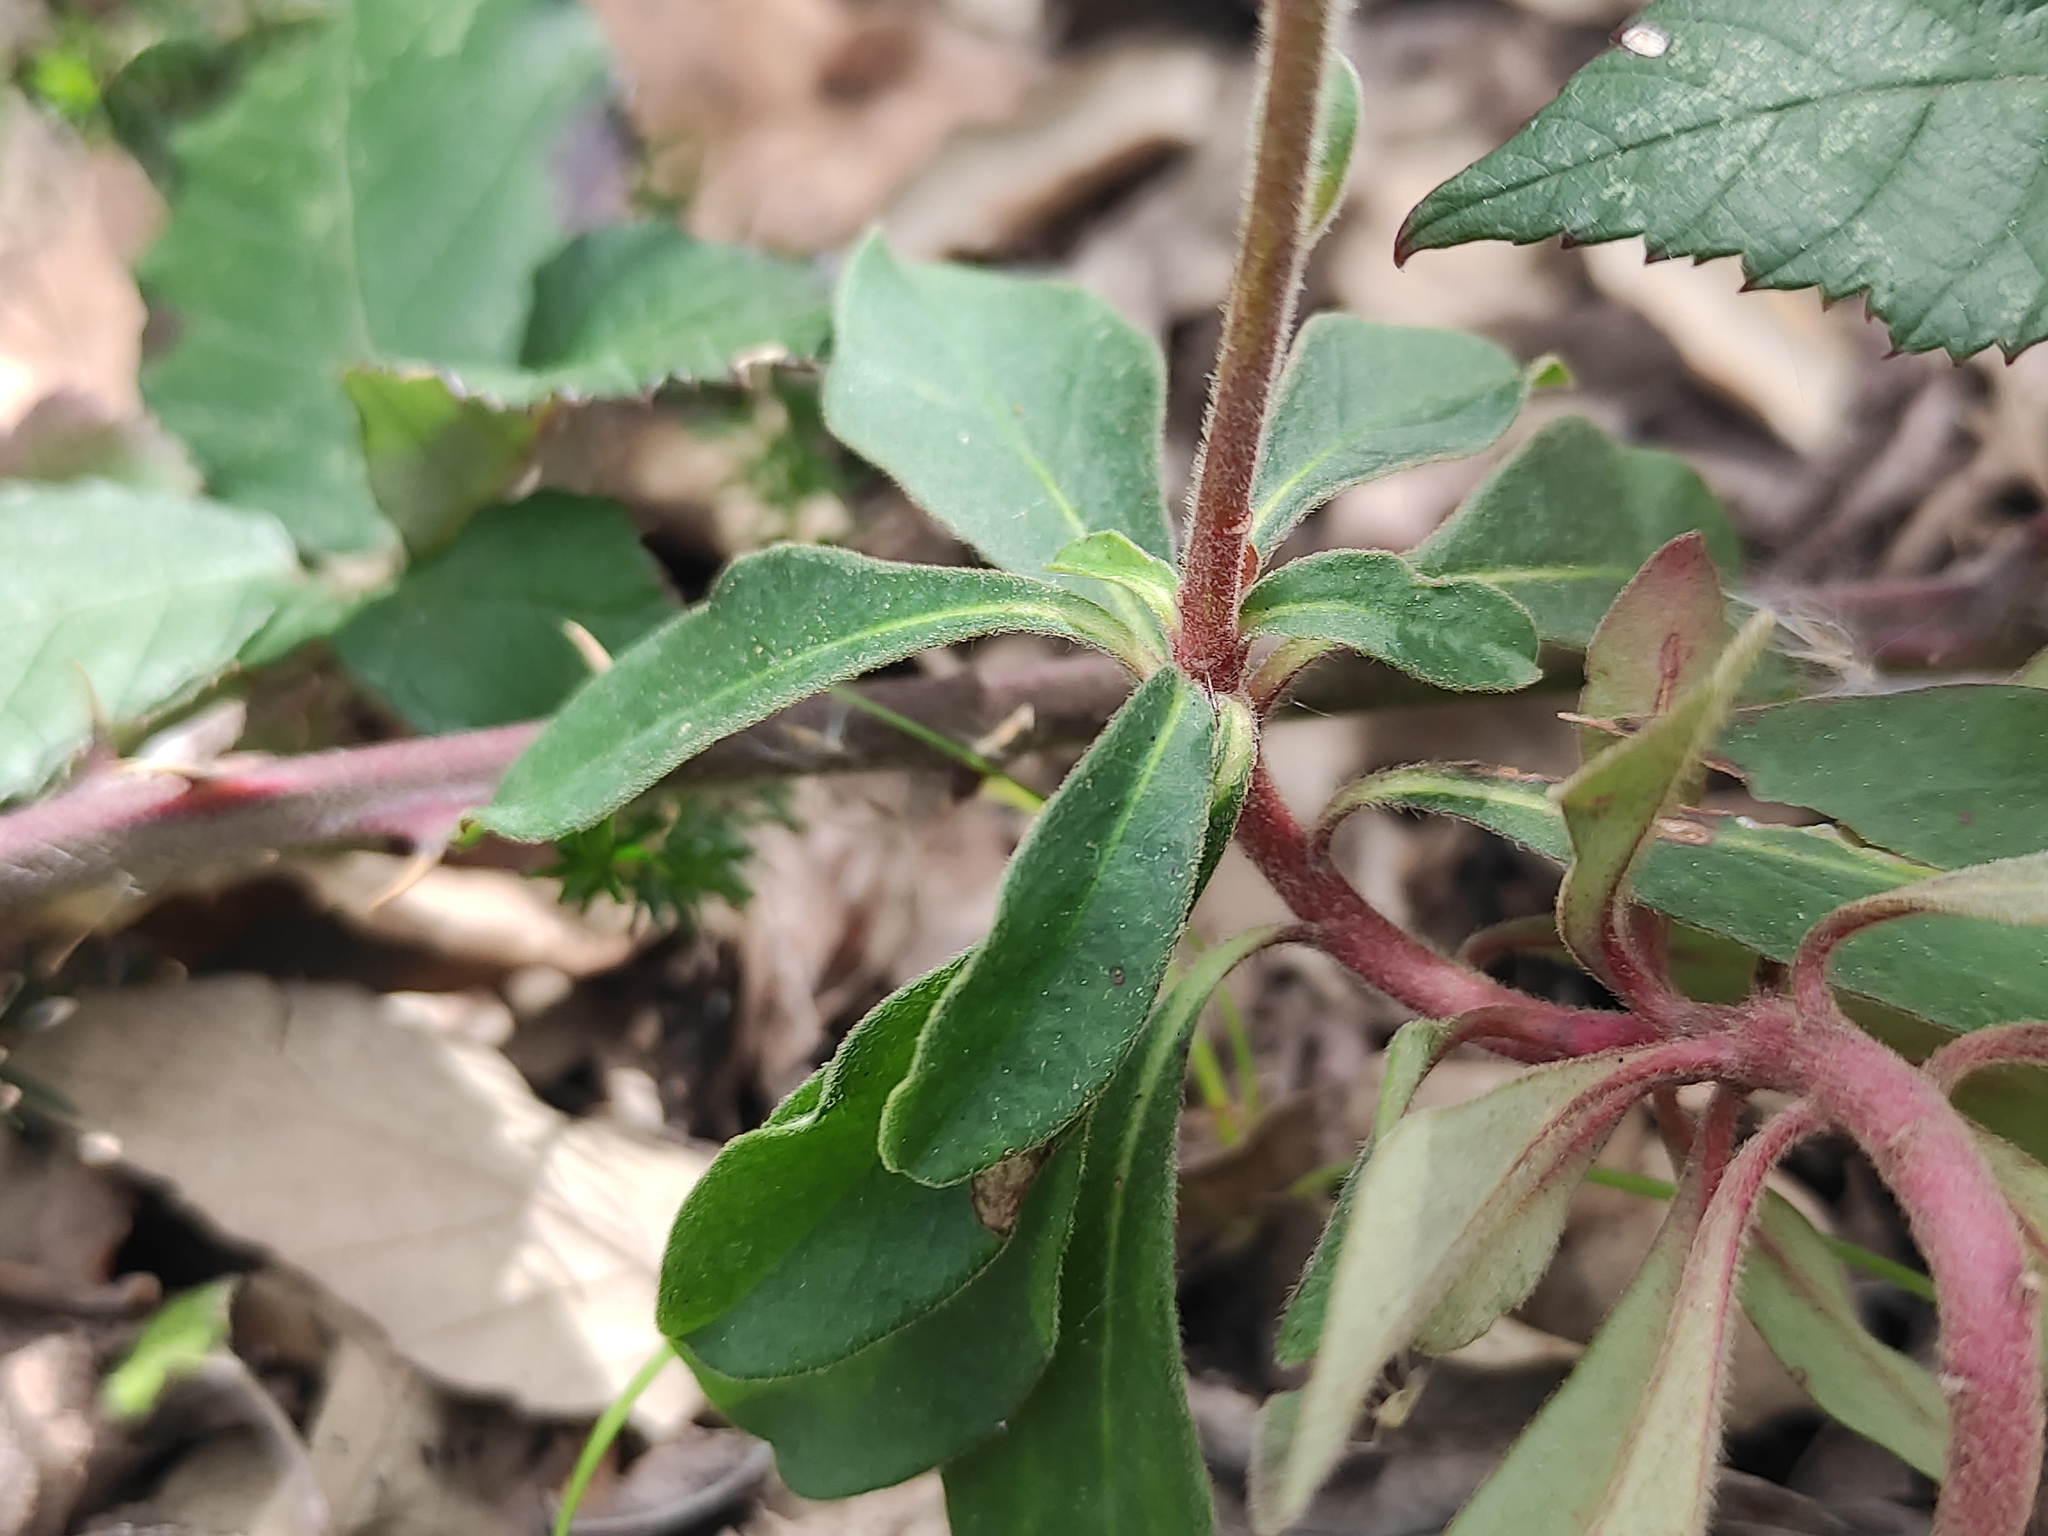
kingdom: Plantae
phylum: Tracheophyta
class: Magnoliopsida
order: Malpighiales
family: Euphorbiaceae
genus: Euphorbia
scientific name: Euphorbia amygdaloides
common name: Wood spurge
